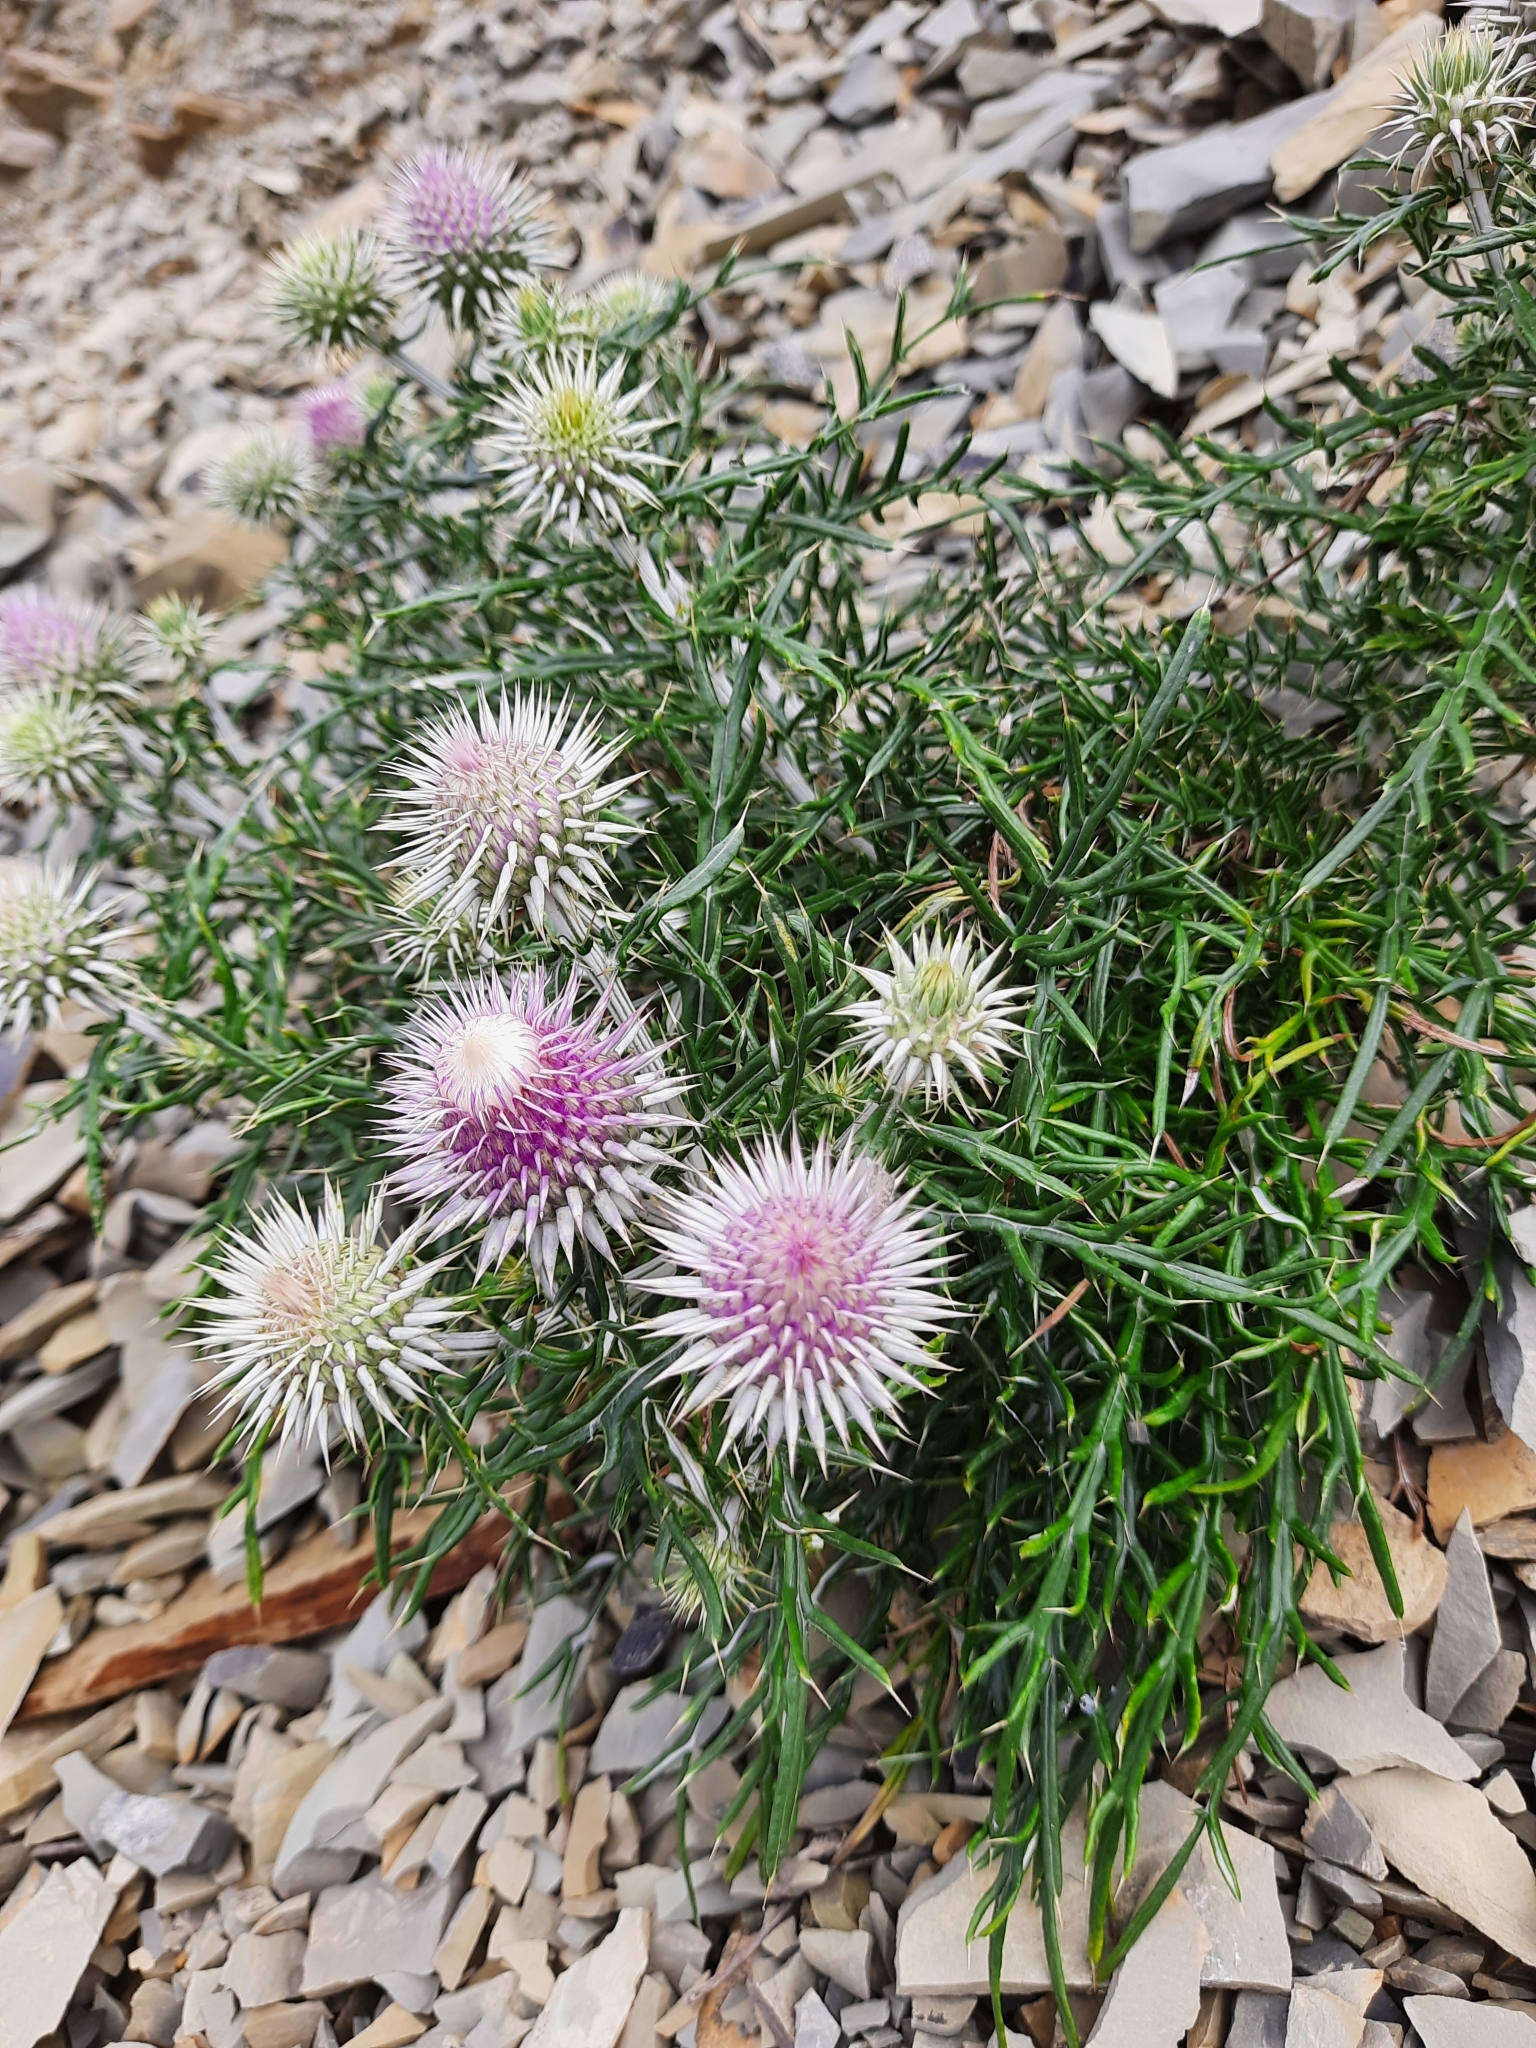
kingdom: Plantae
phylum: Tracheophyta
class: Magnoliopsida
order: Asterales
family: Asteraceae
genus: Ptilostemon
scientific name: Ptilostemon echinocephalus
